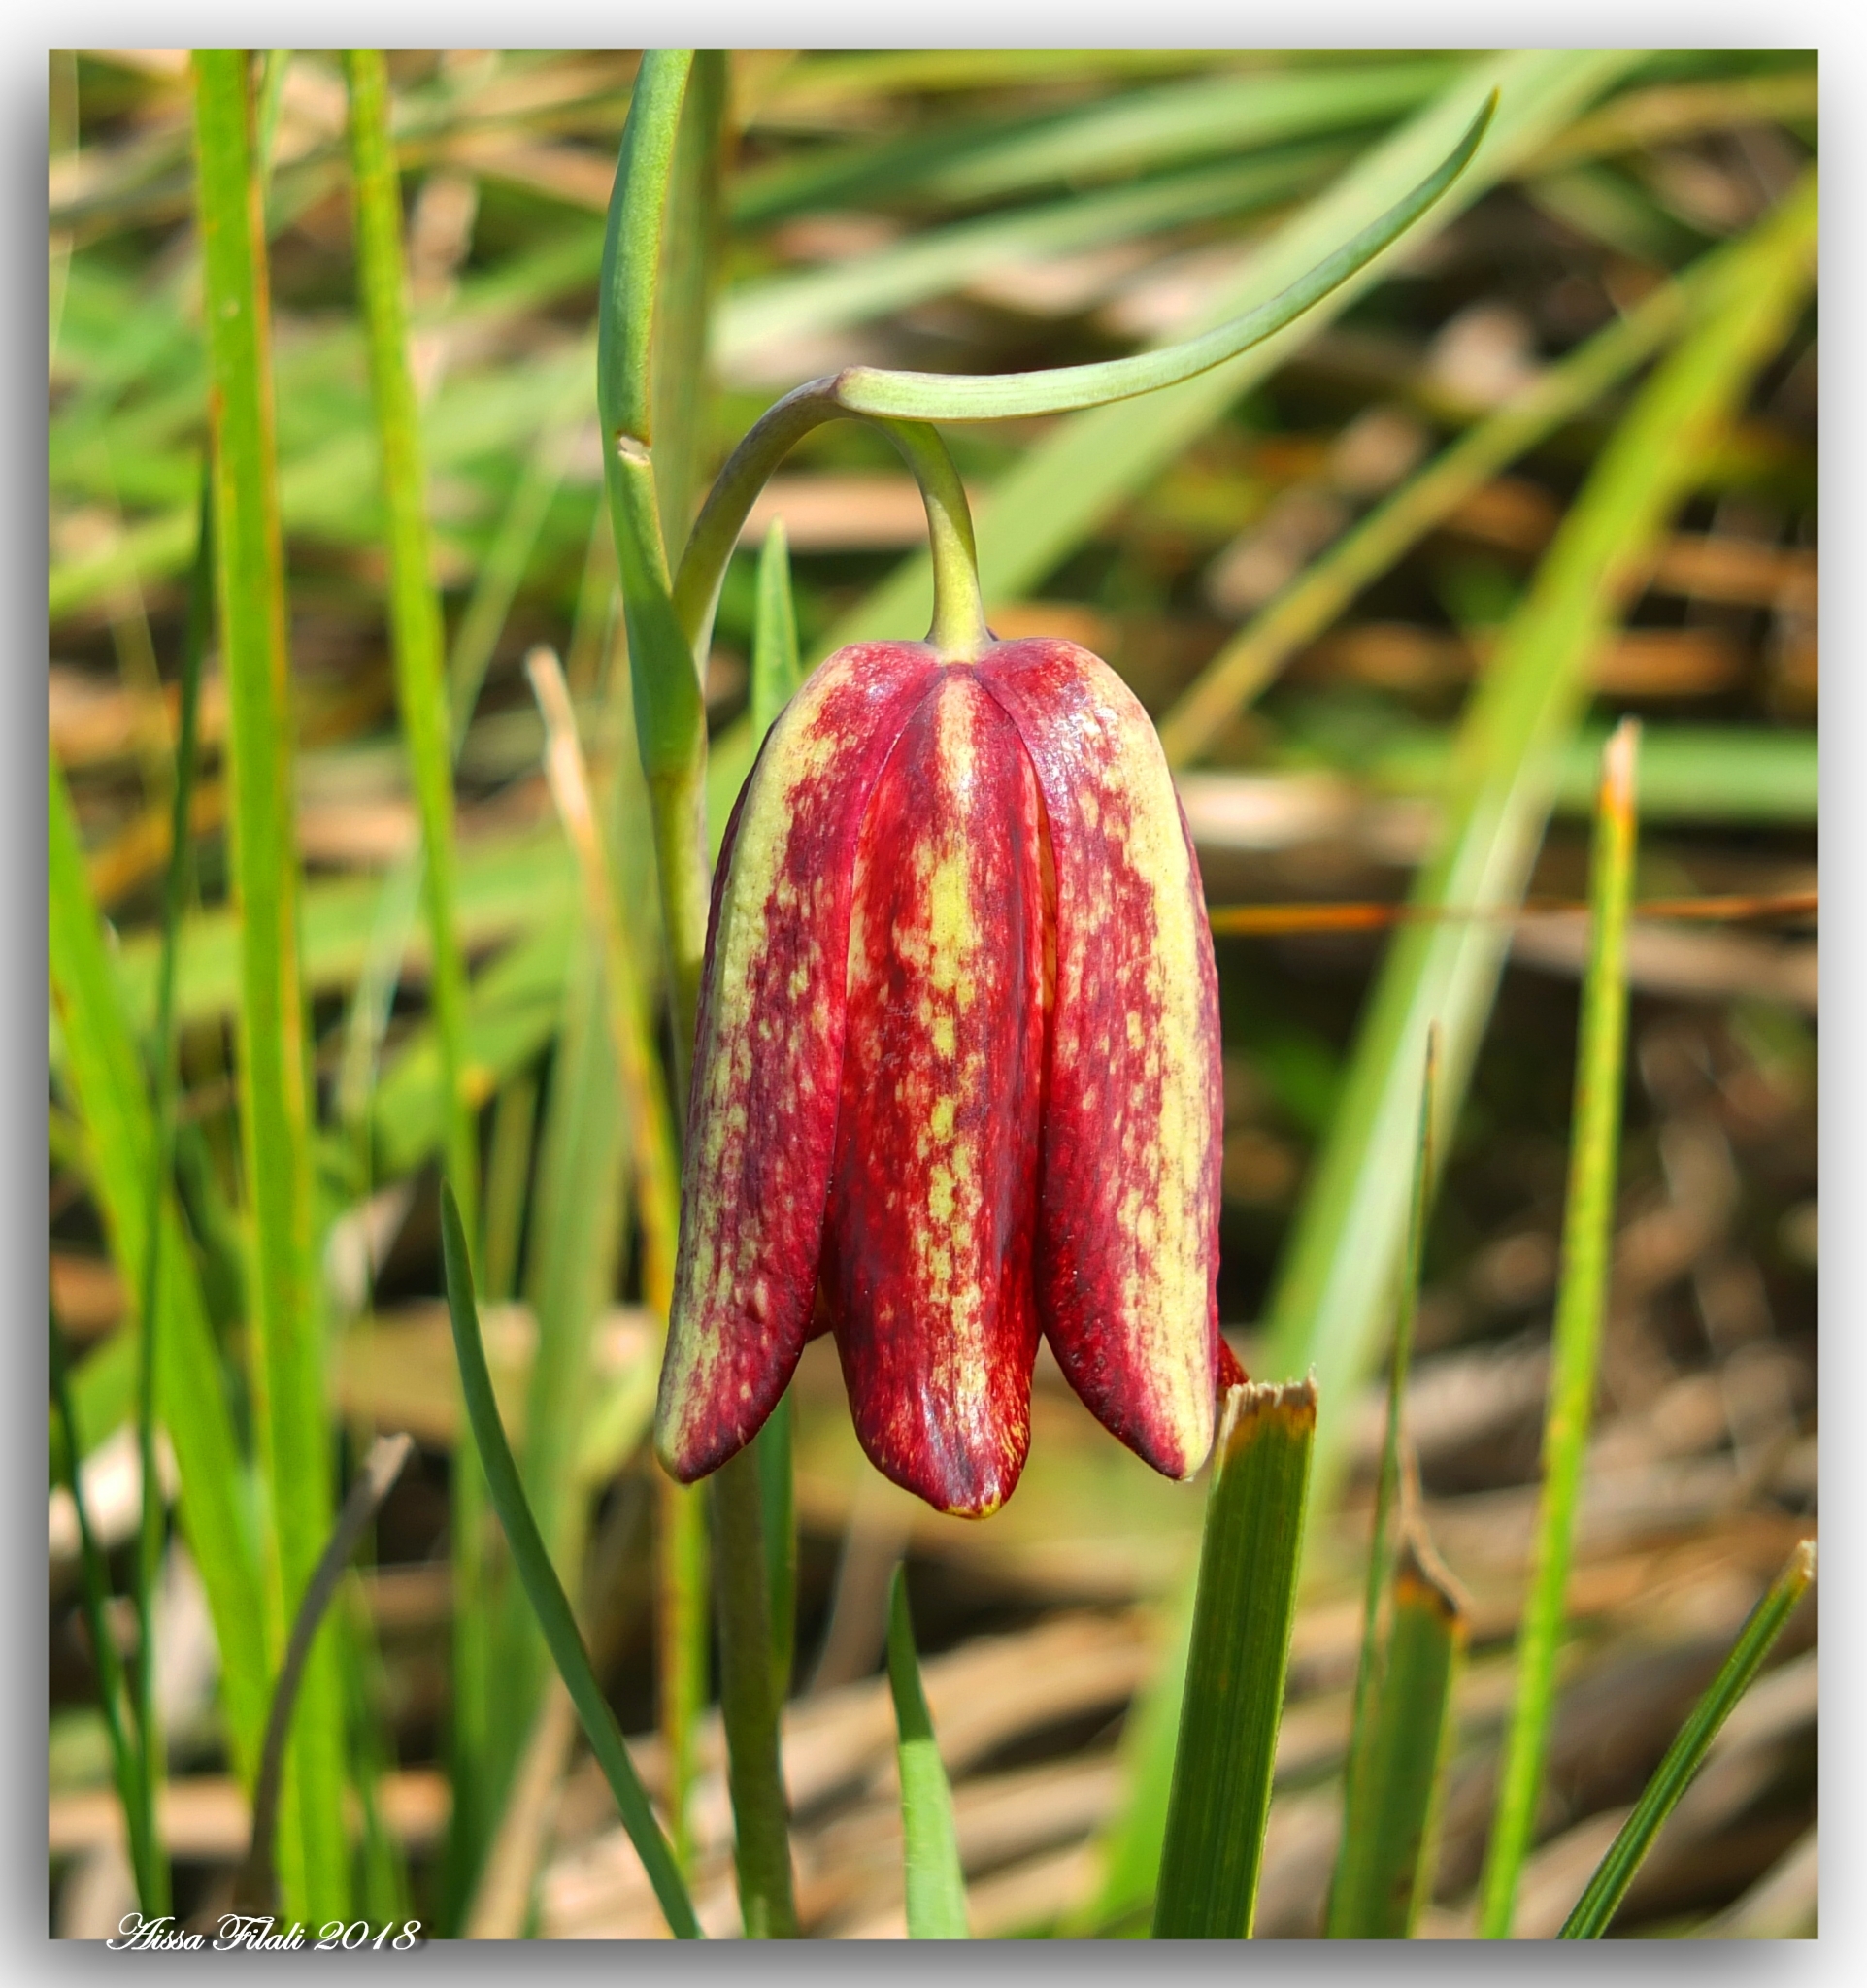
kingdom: Plantae
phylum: Tracheophyta
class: Liliopsida
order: Liliales
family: Liliaceae
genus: Fritillaria
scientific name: Fritillaria oranensis
